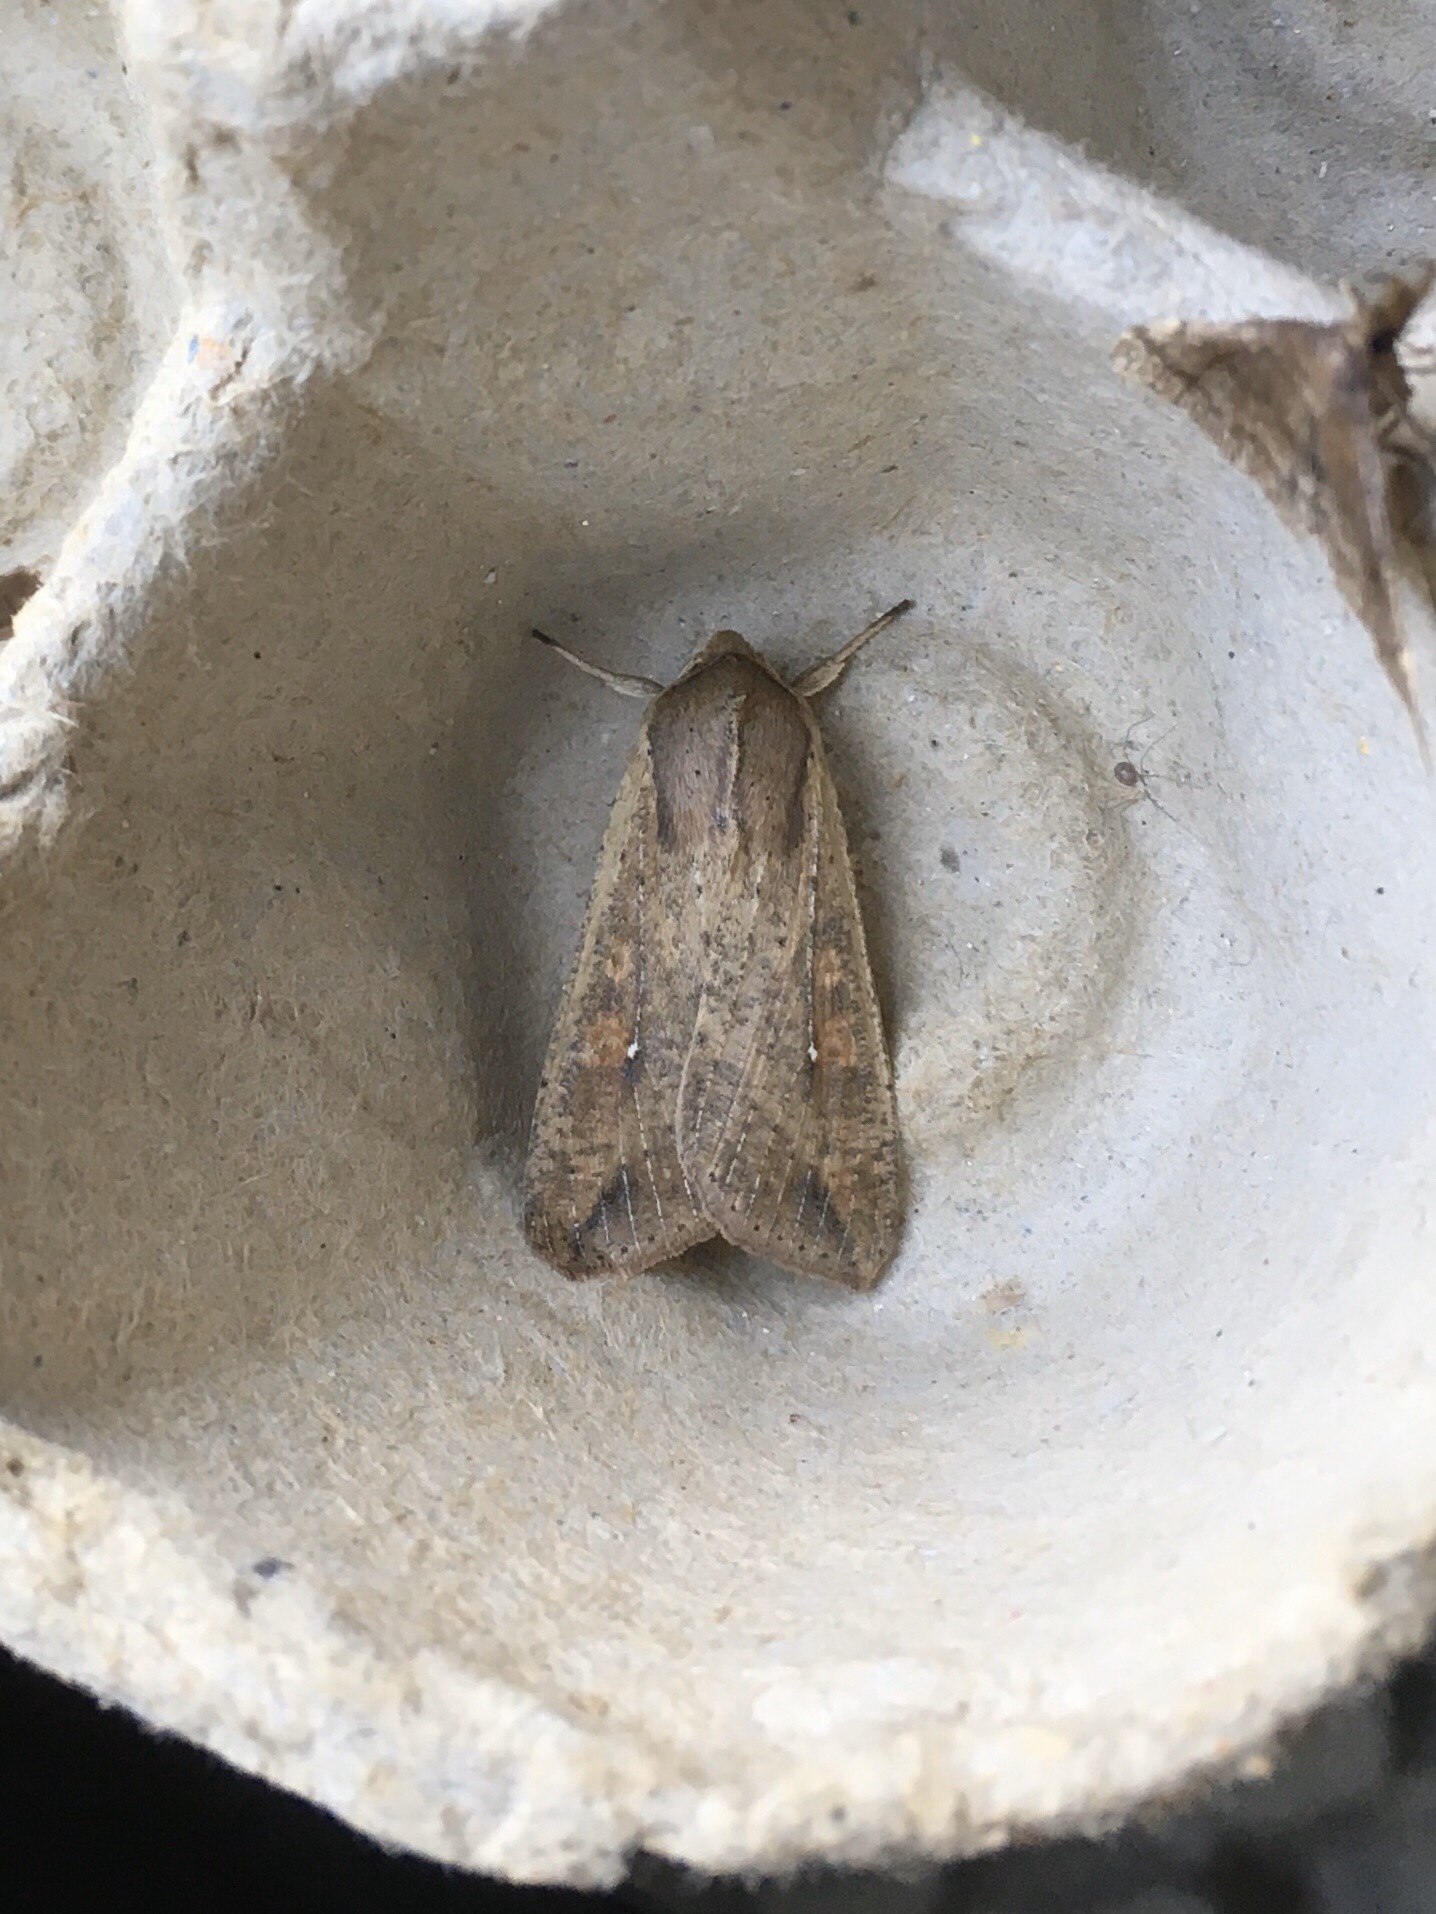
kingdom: Animalia
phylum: Arthropoda
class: Insecta
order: Lepidoptera
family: Noctuidae
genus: Mythimna
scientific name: Mythimna unipuncta
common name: White-speck
